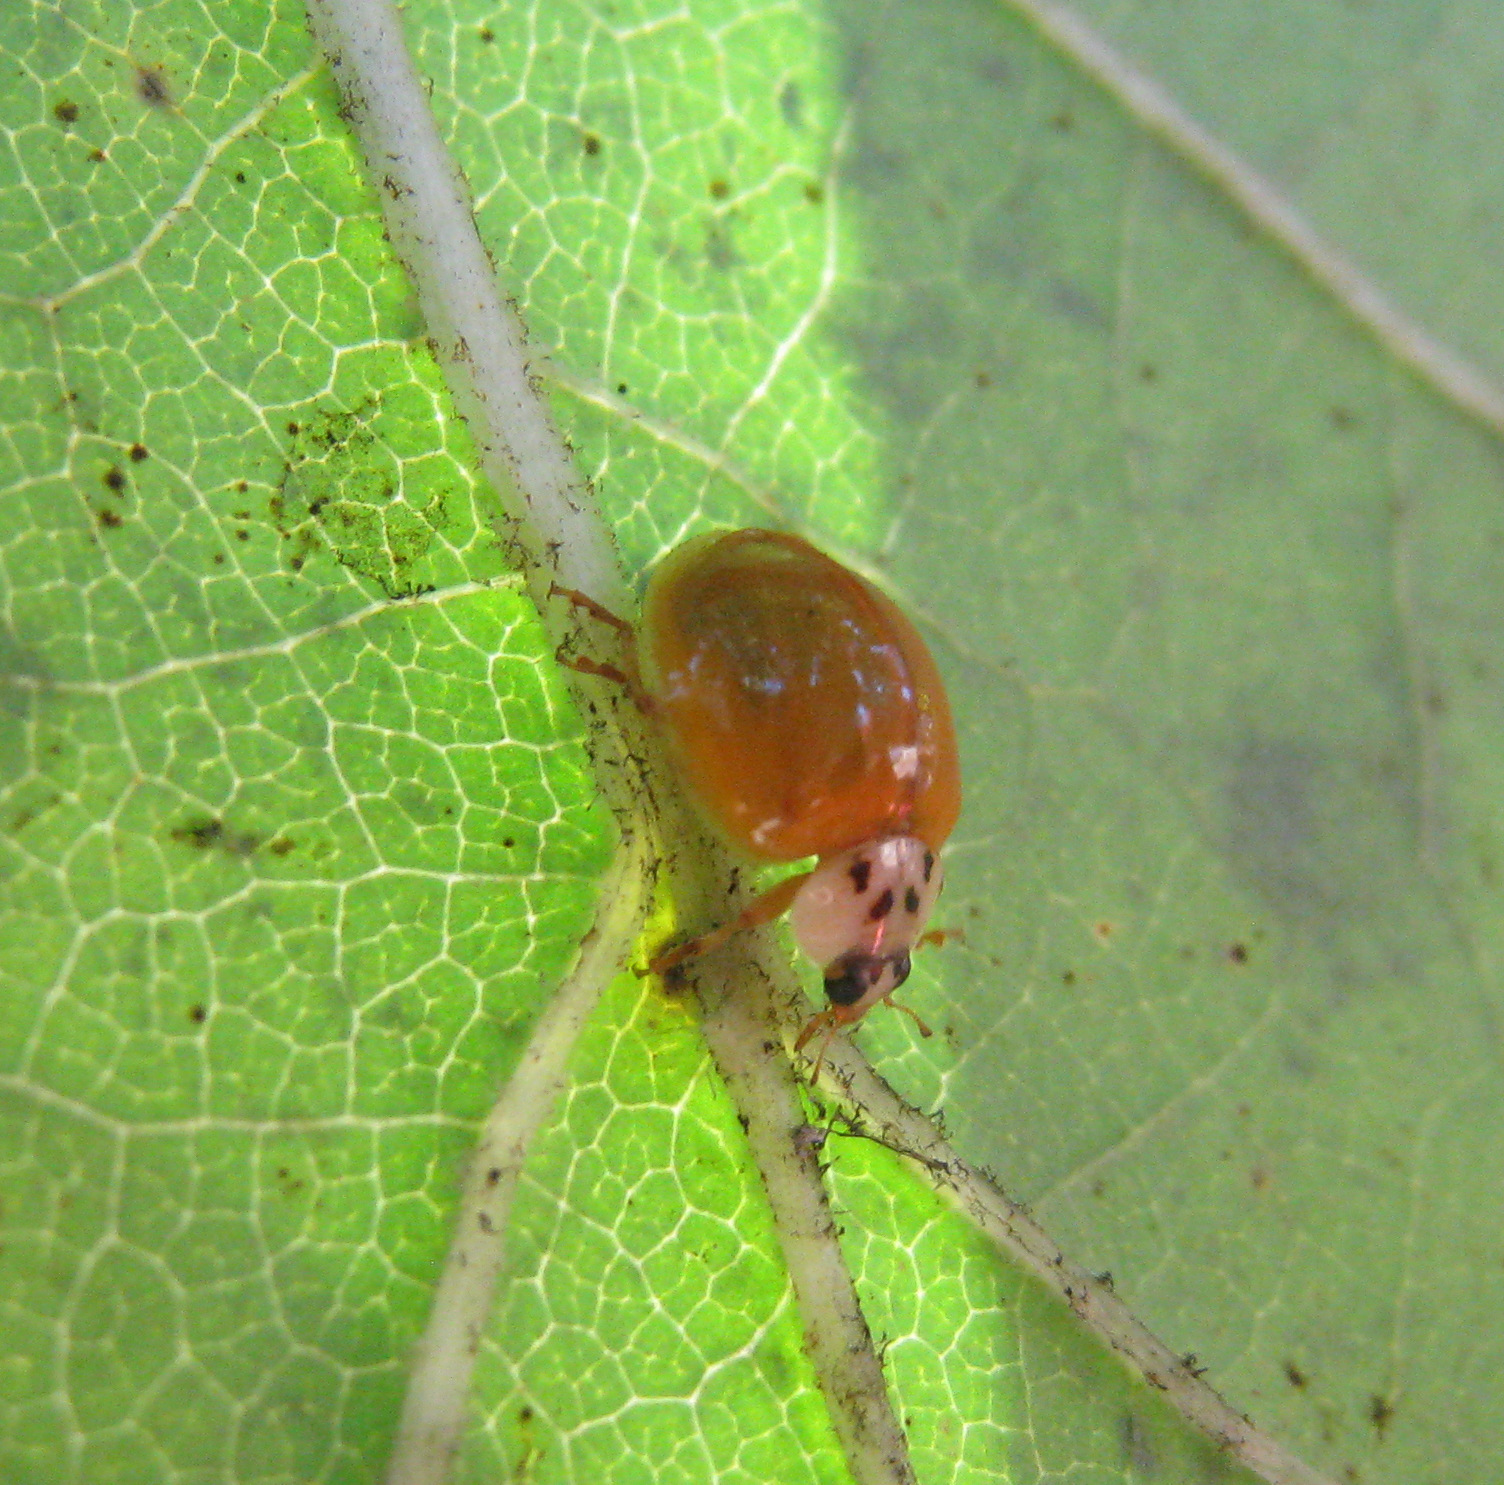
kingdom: Animalia
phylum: Arthropoda
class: Insecta
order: Coleoptera
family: Coccinellidae
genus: Harmonia
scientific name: Harmonia axyridis
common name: Harlequin ladybird
